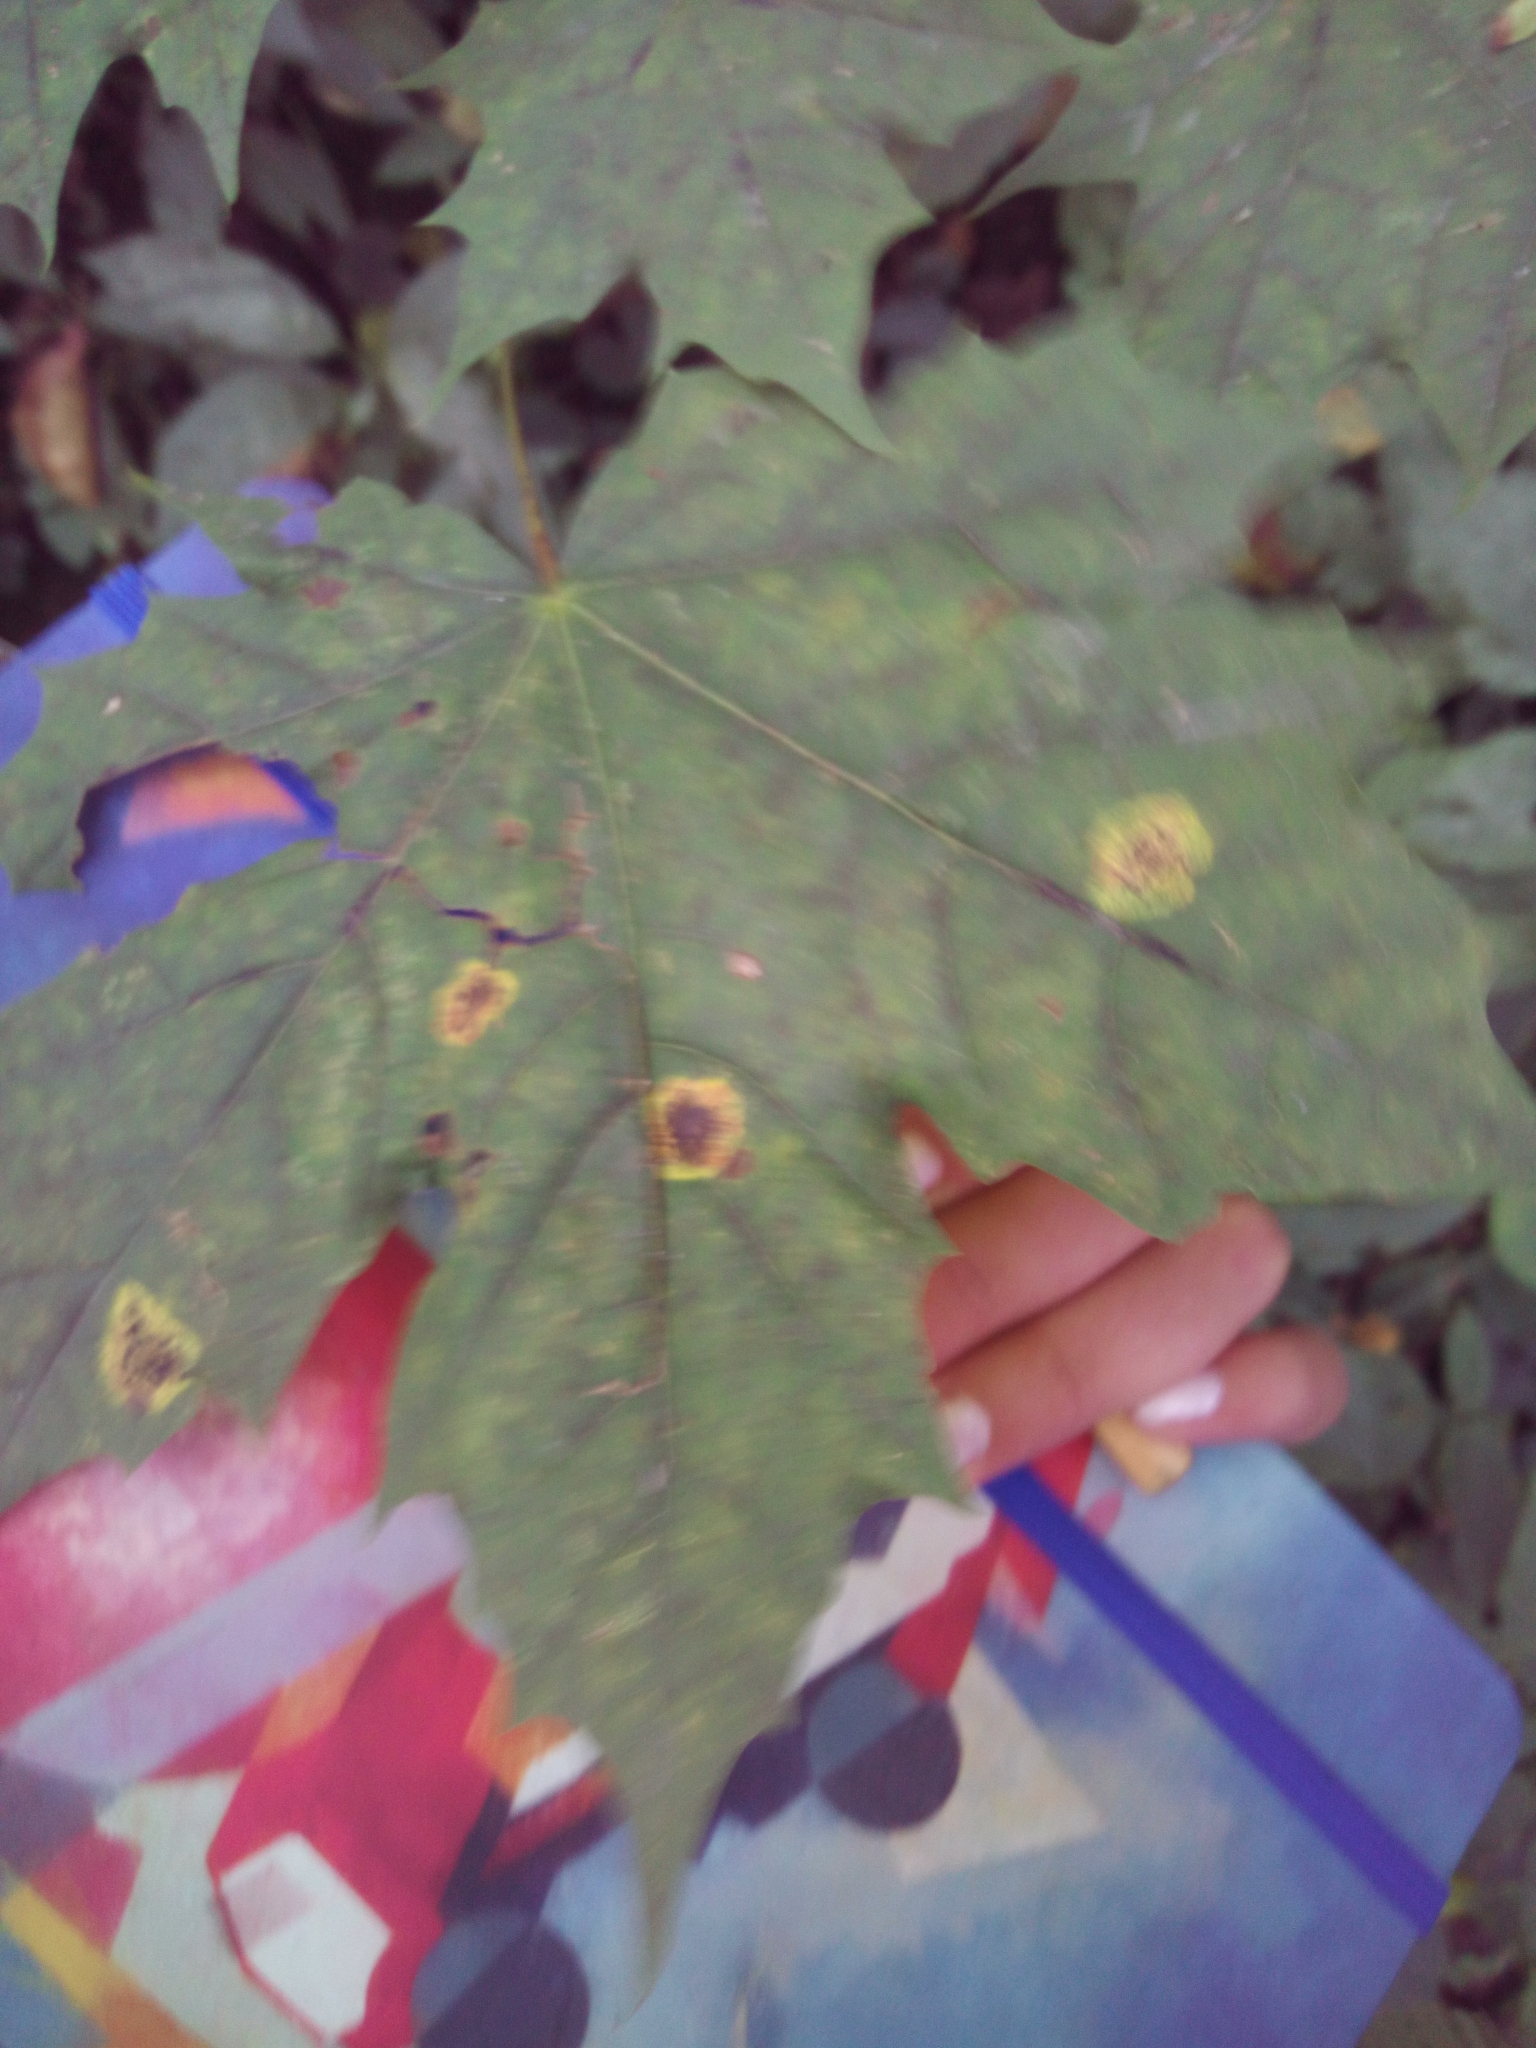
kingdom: Plantae
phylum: Tracheophyta
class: Magnoliopsida
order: Sapindales
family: Sapindaceae
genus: Acer
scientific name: Acer platanoides
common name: Norway maple
